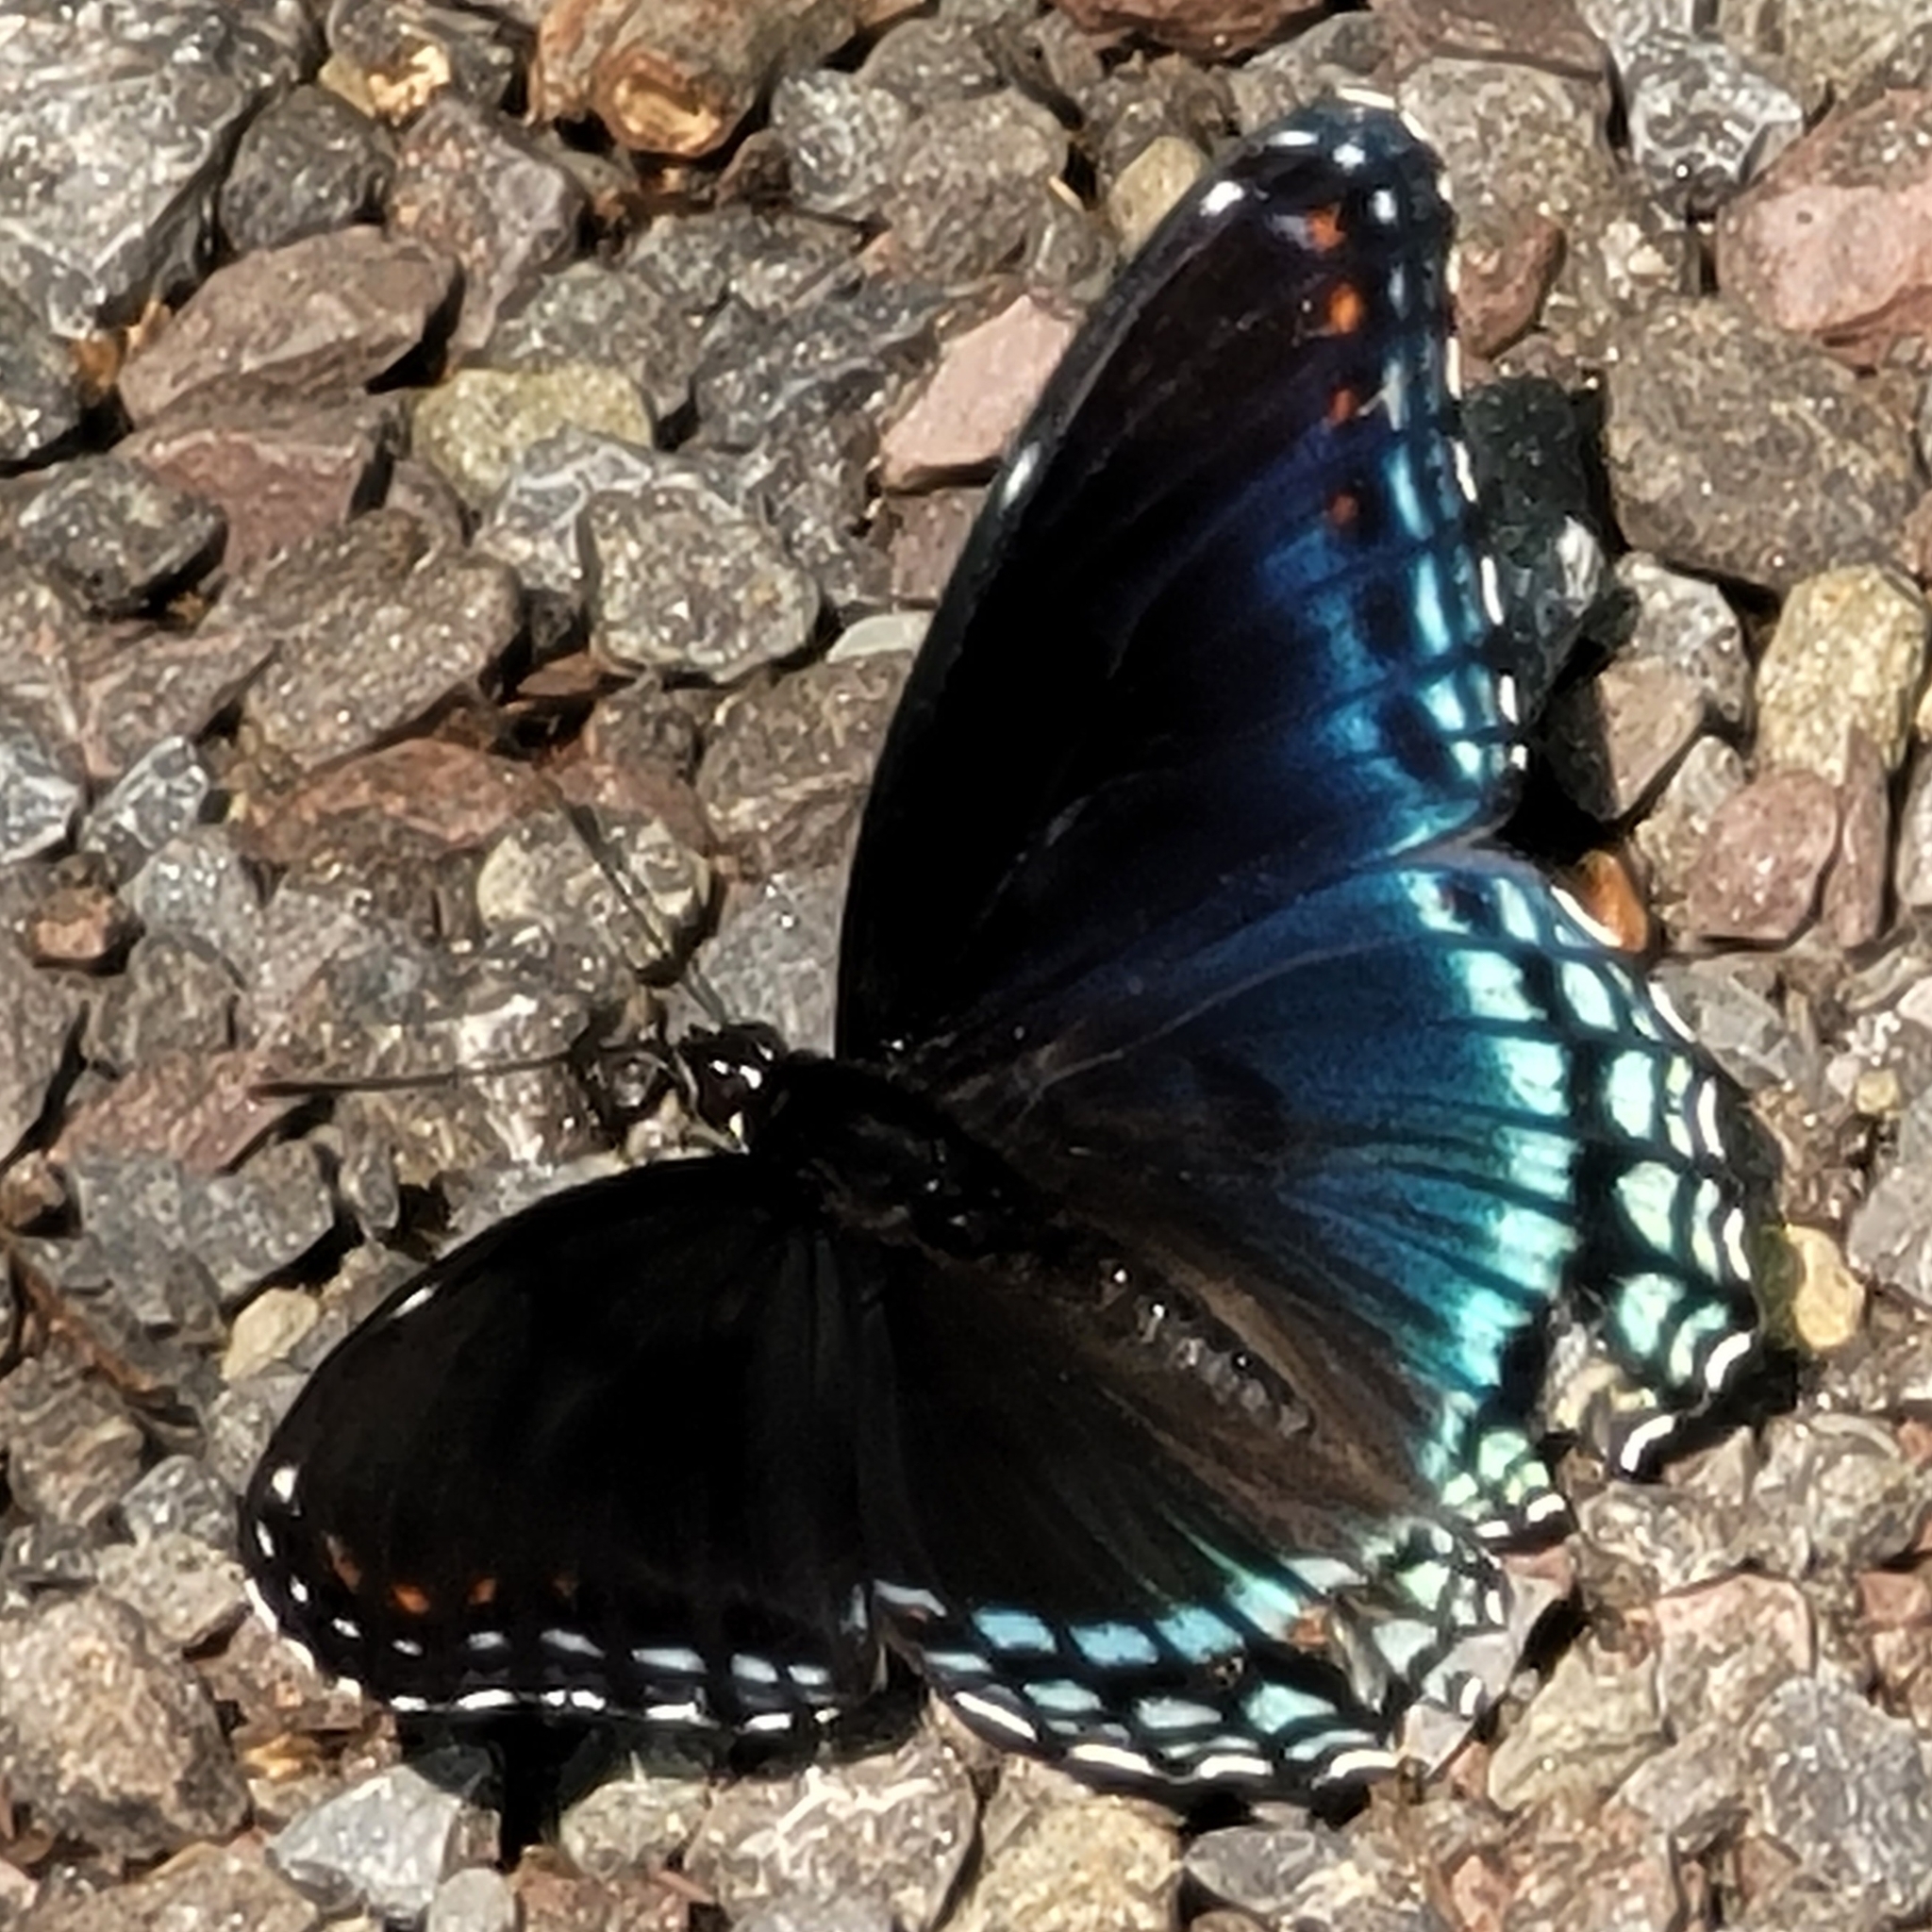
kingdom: Animalia
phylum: Arthropoda
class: Insecta
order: Lepidoptera
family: Nymphalidae
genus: Limenitis
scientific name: Limenitis astyanax
